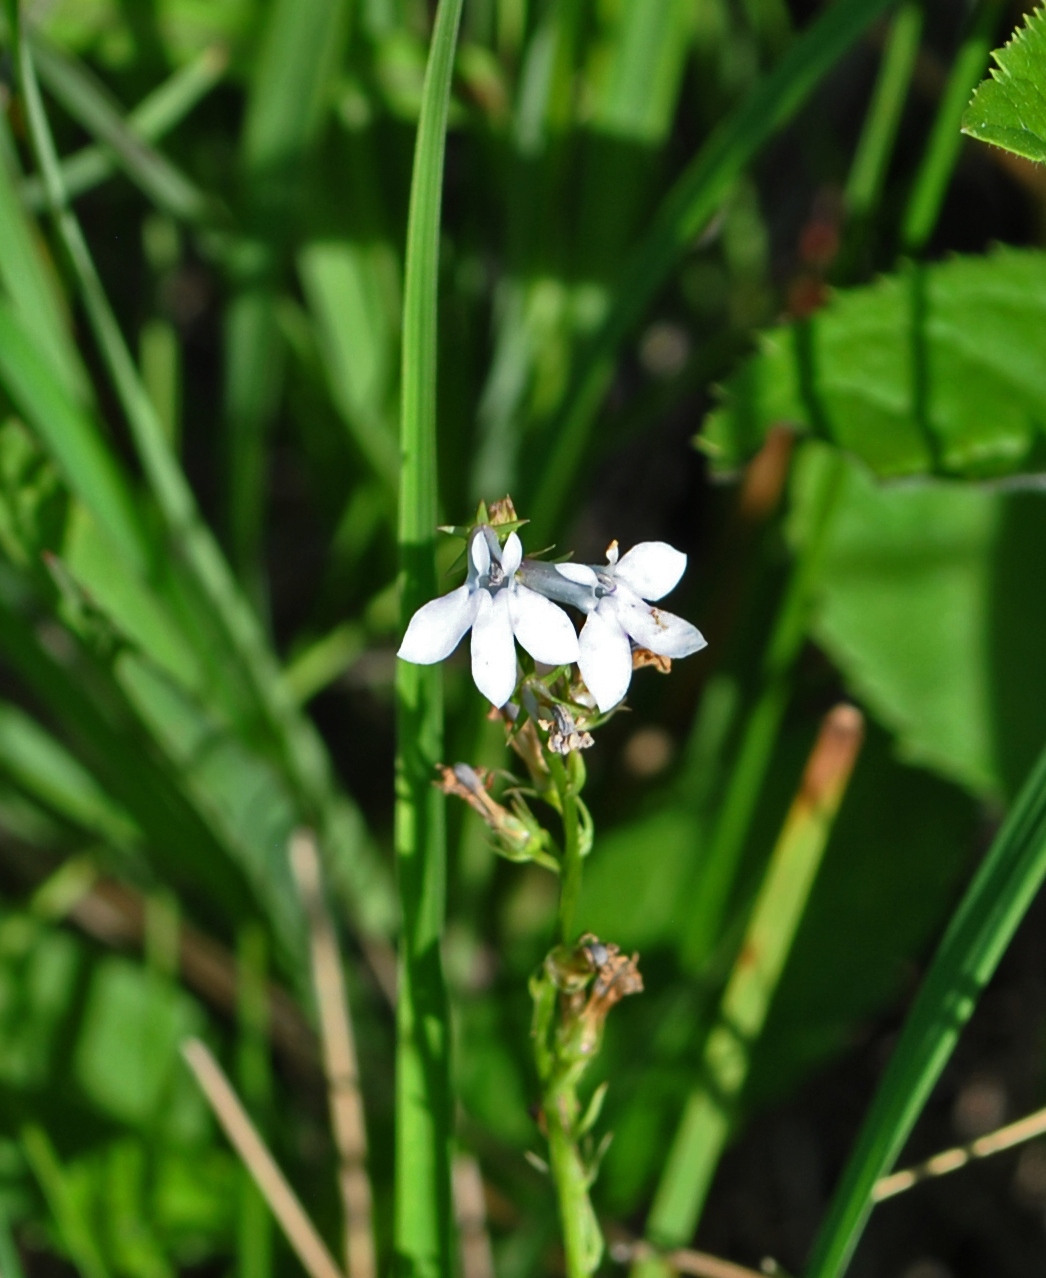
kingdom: Plantae
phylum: Tracheophyta
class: Magnoliopsida
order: Asterales
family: Campanulaceae
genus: Lobelia
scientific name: Lobelia spicata
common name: Pale-spike lobelia
